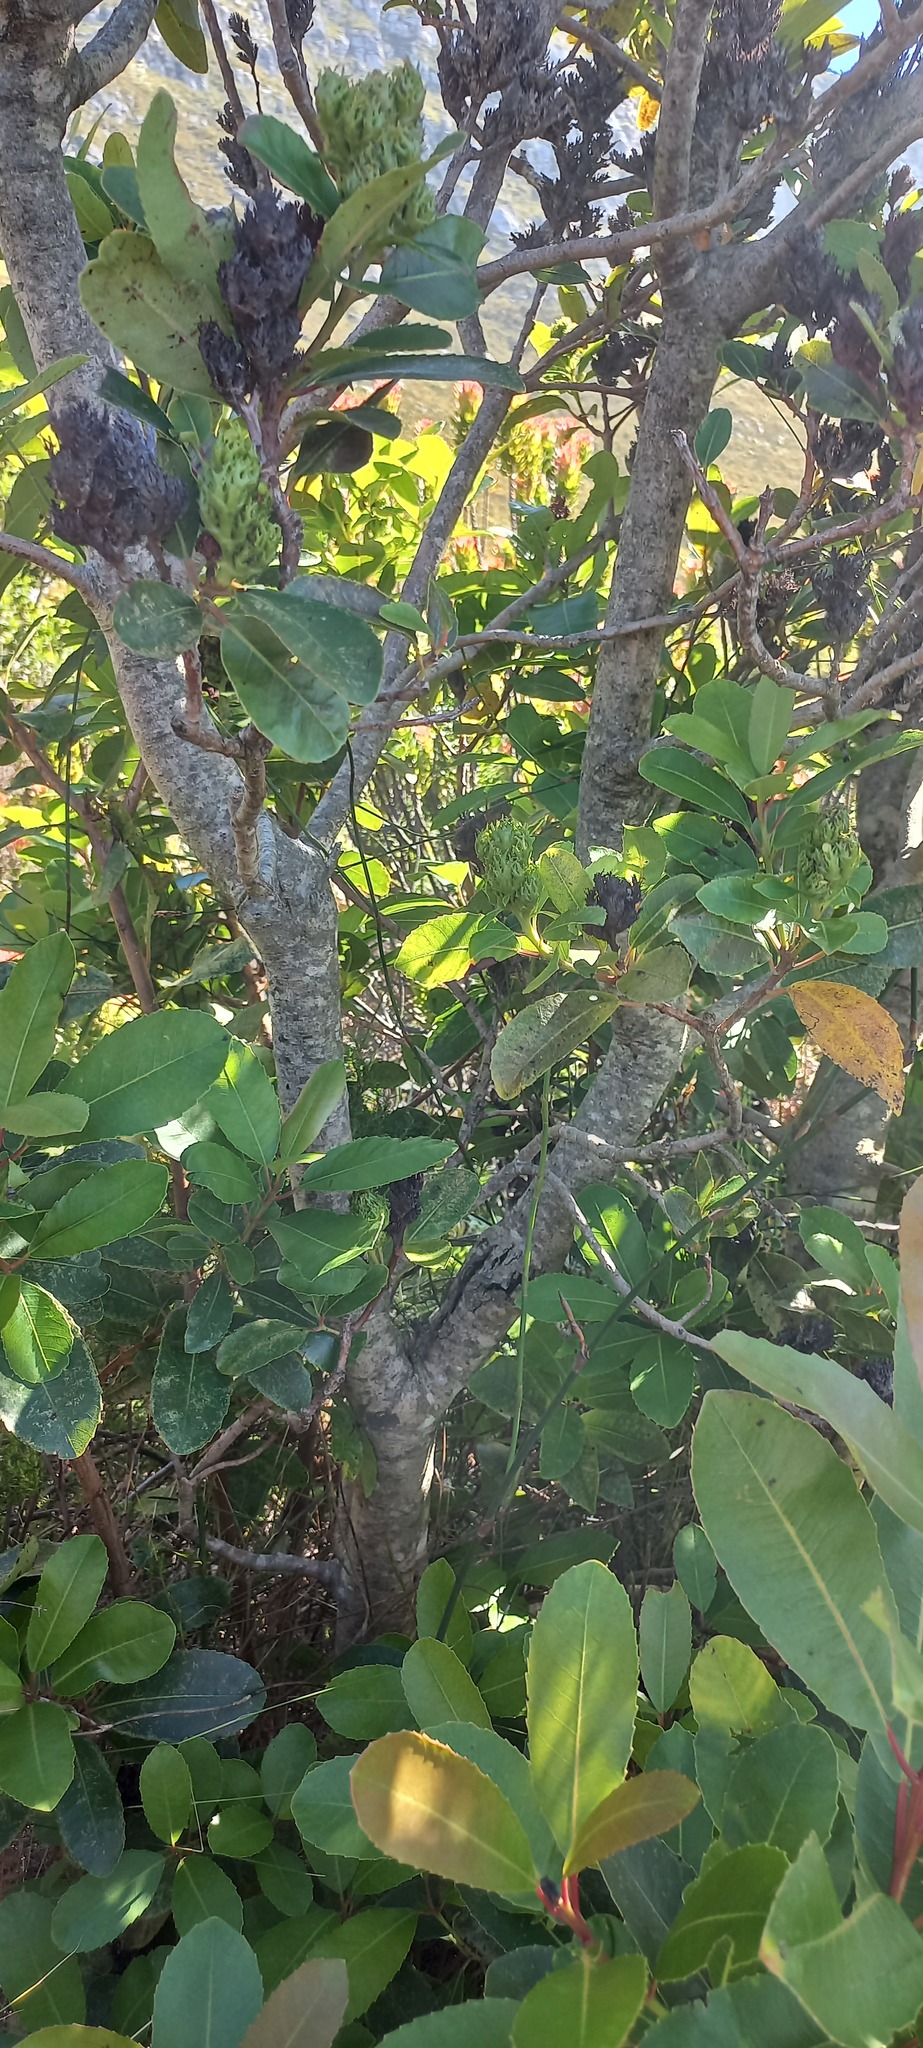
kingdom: Plantae
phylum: Tracheophyta
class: Magnoliopsida
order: Sapindales
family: Anacardiaceae
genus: Laurophyllus
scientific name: Laurophyllus capensis
